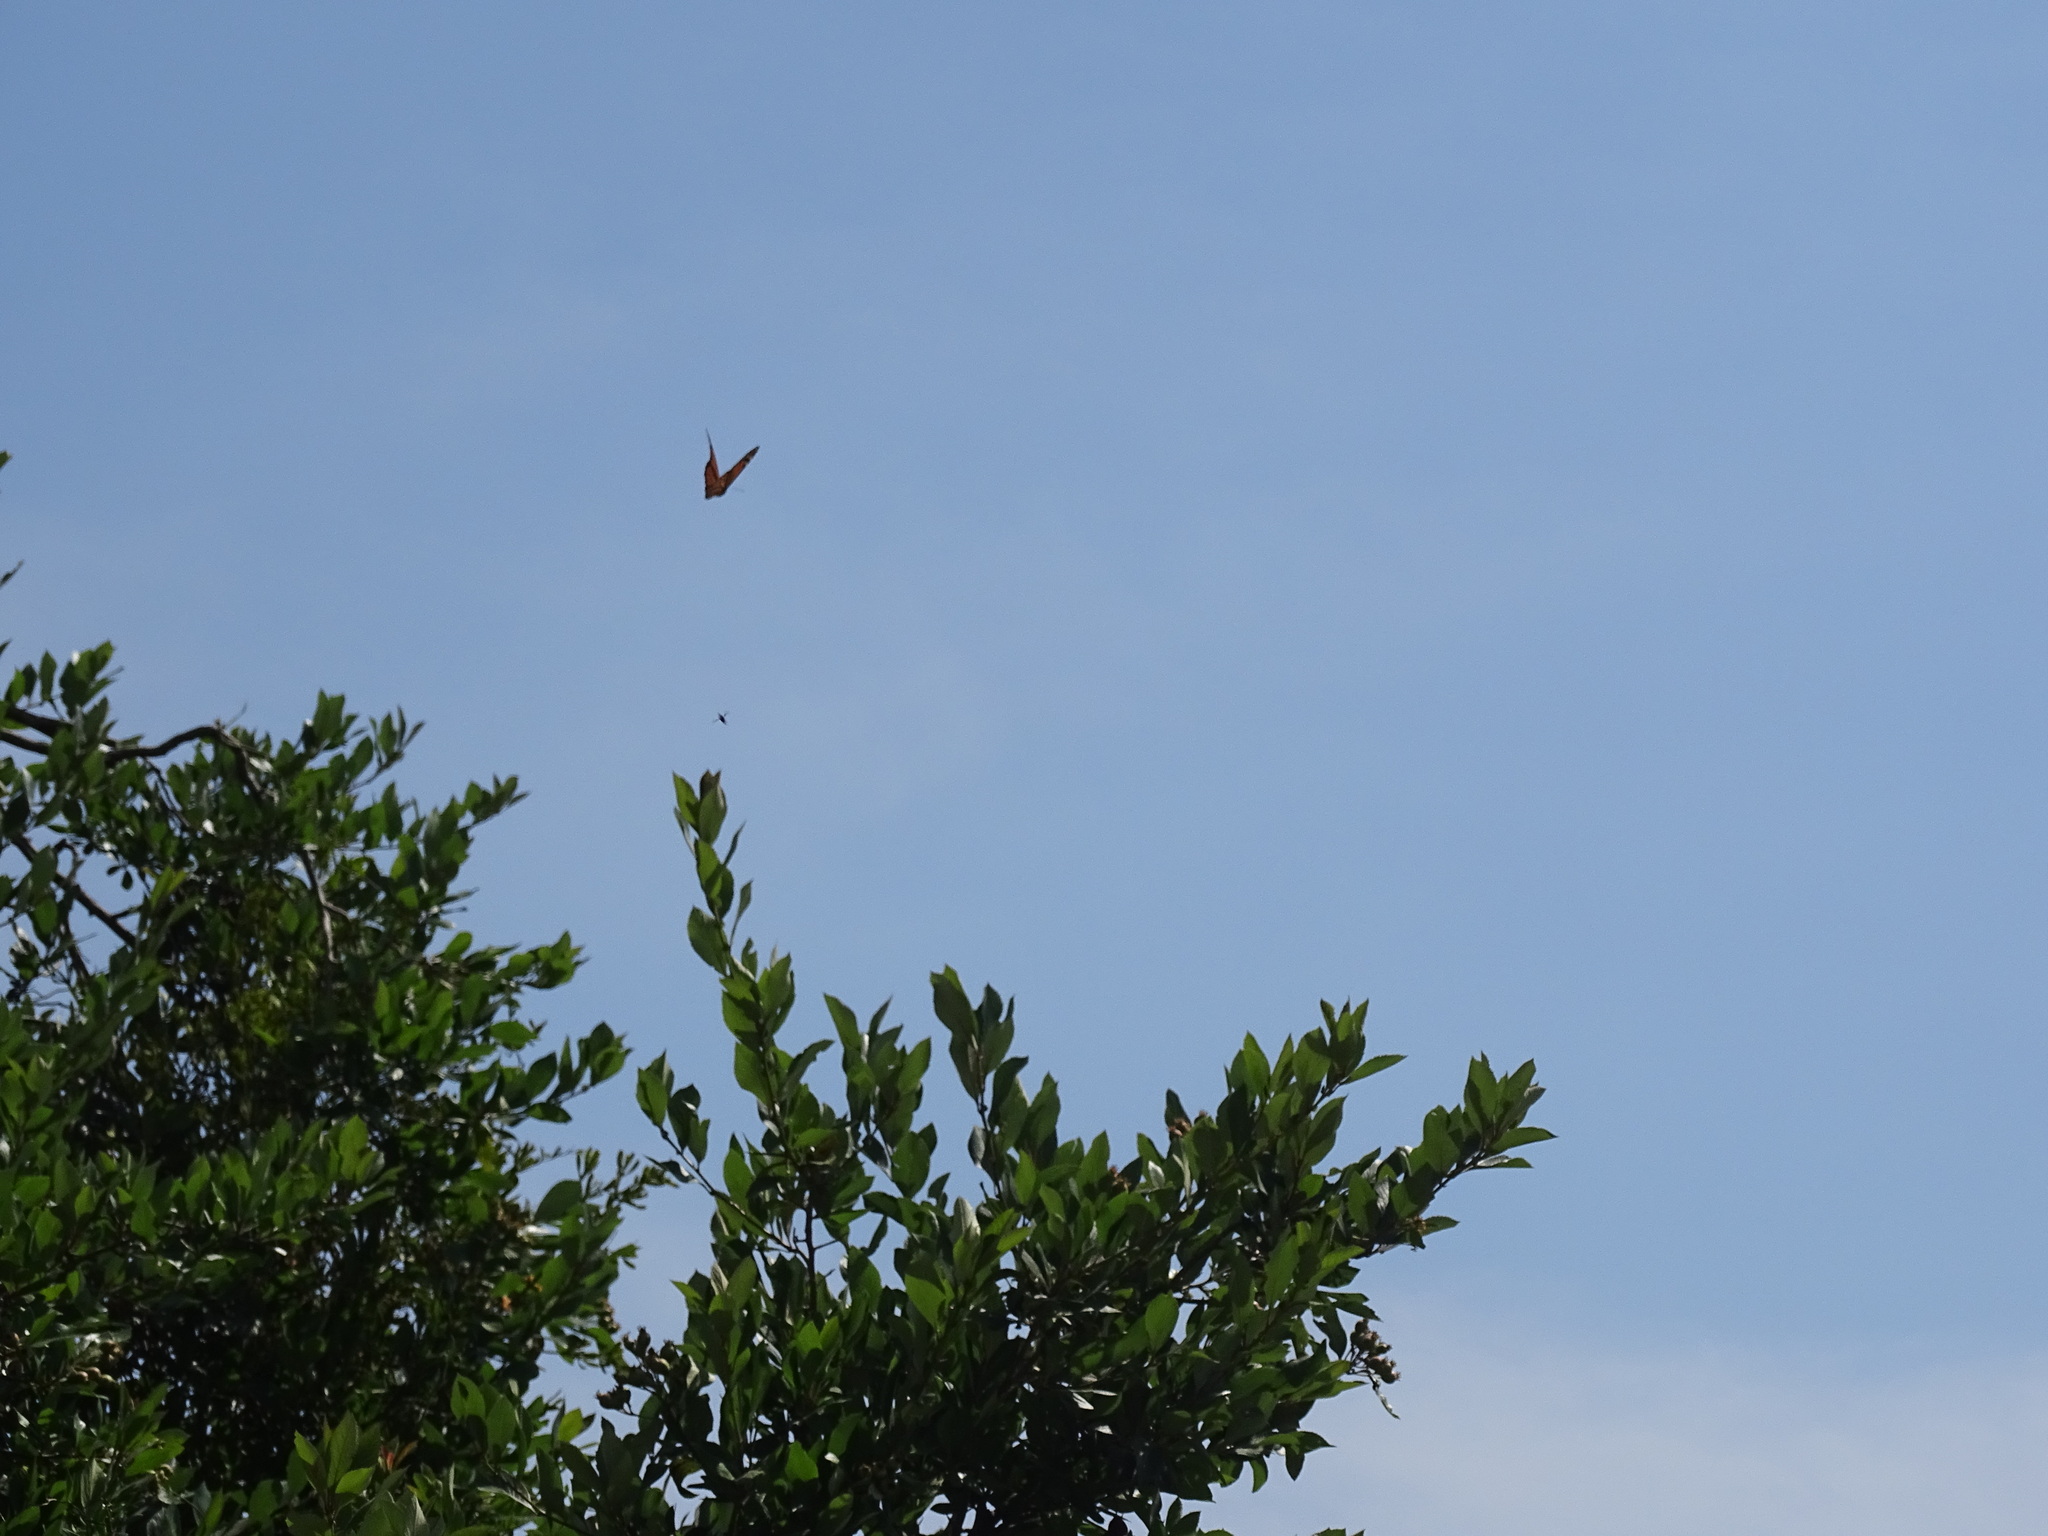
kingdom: Animalia
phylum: Arthropoda
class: Insecta
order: Lepidoptera
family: Nymphalidae
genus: Danaus
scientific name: Danaus plexippus
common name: Monarch
